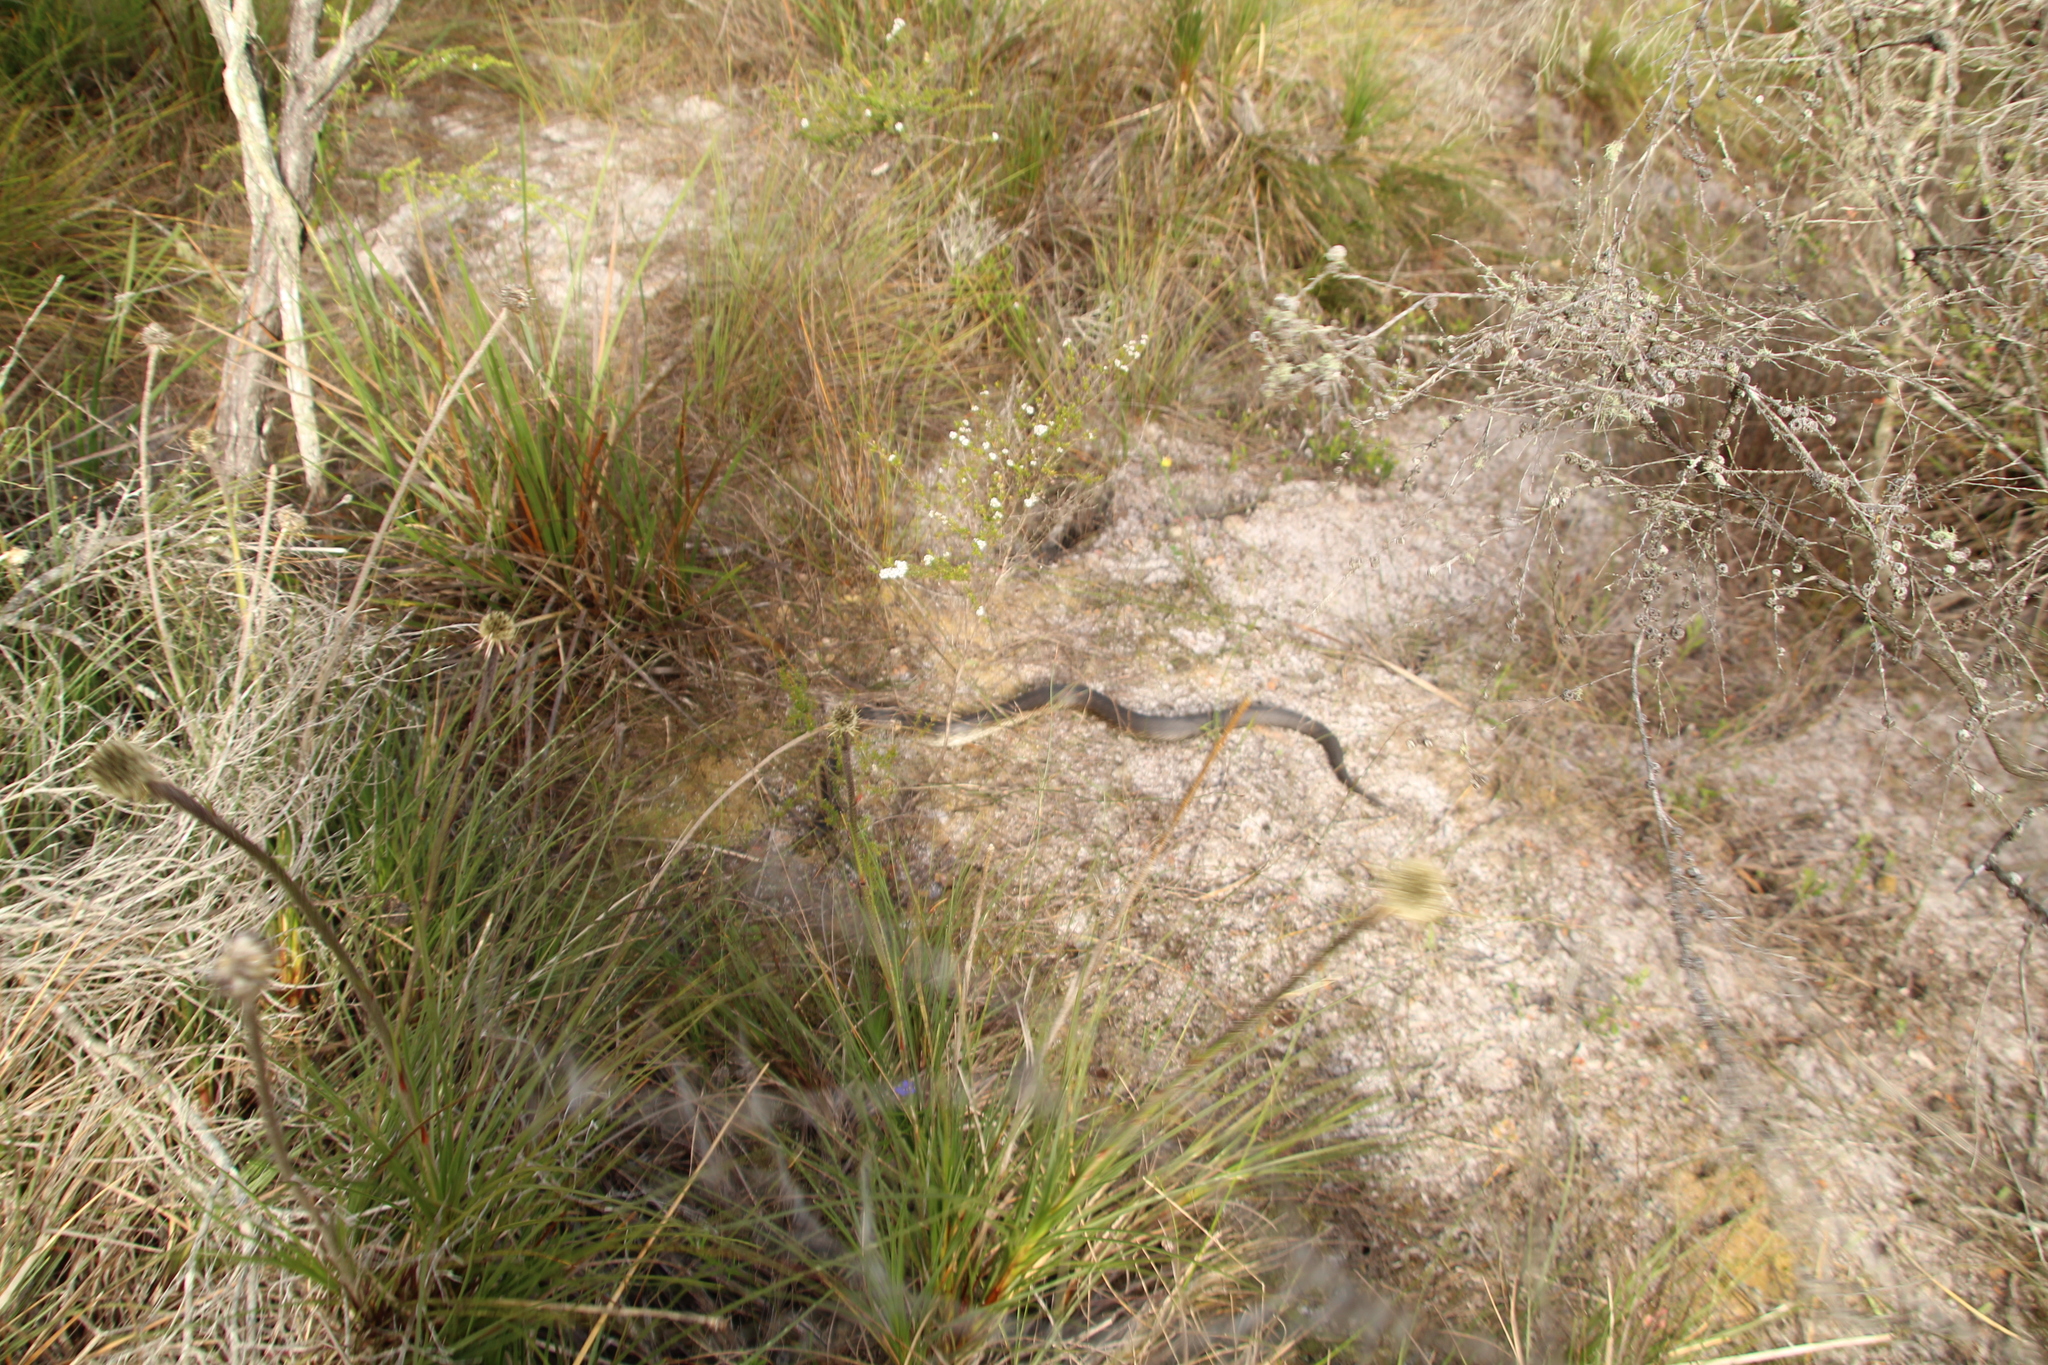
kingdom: Animalia
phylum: Chordata
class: Squamata
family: Elapidae
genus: Notechis
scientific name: Notechis scutatus
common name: Mainland tiger snake
